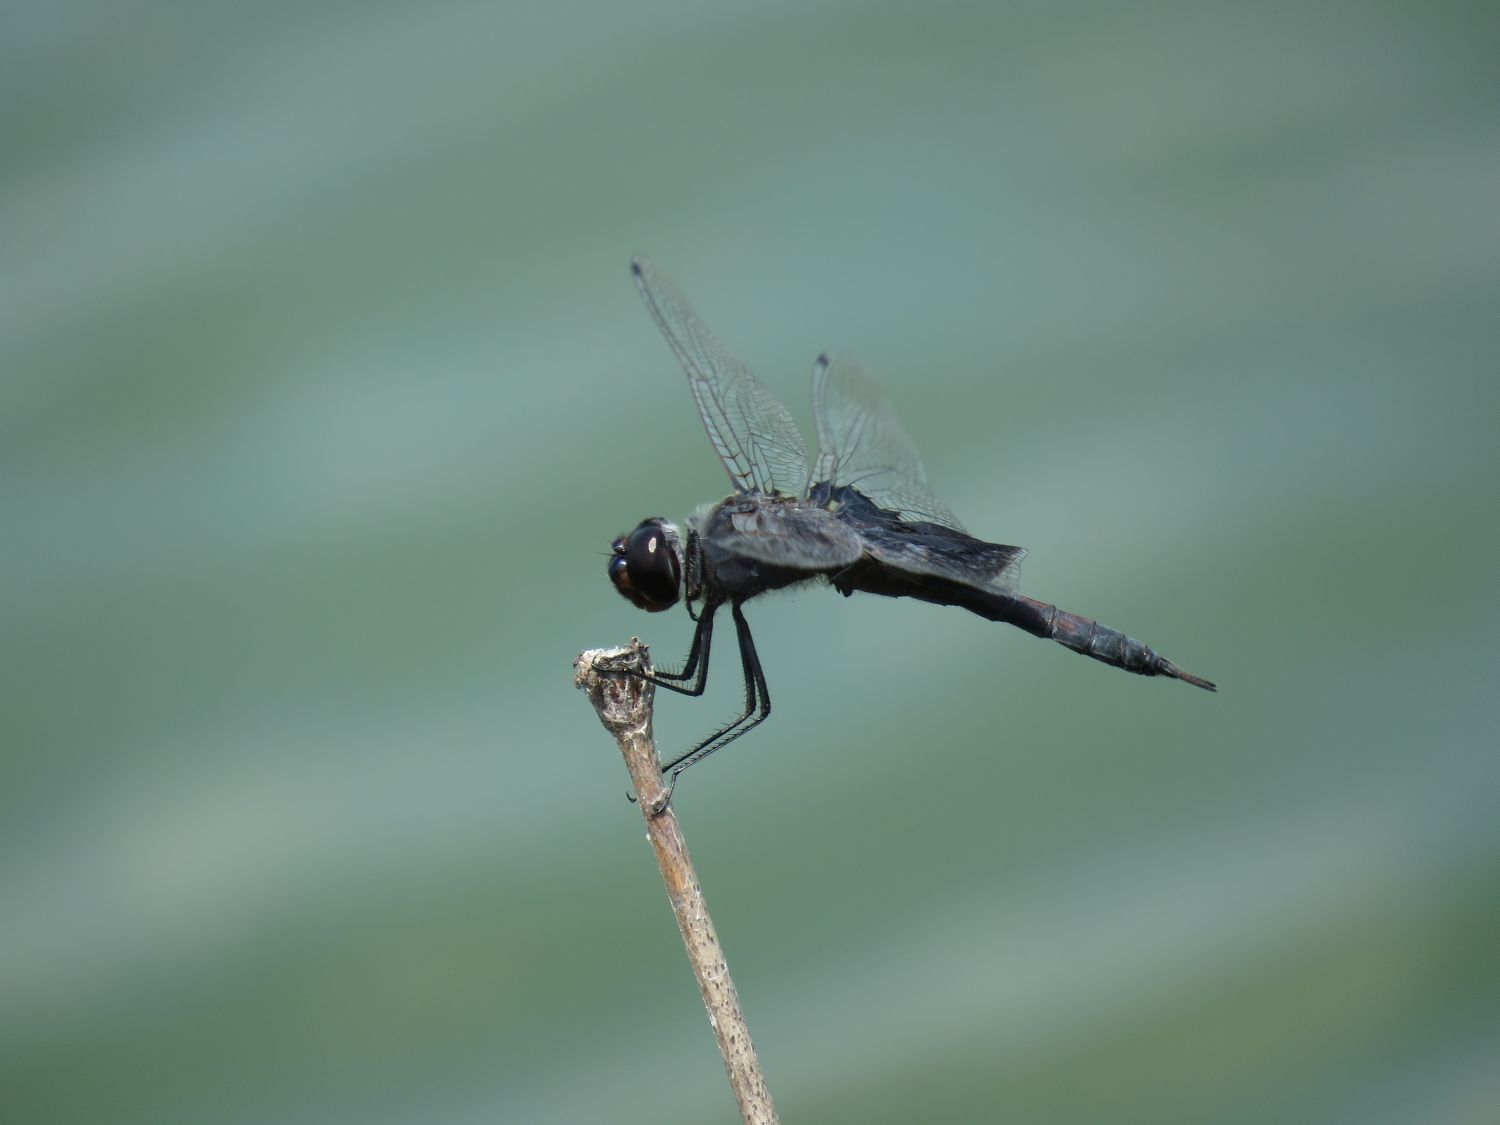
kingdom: Animalia
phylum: Arthropoda
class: Insecta
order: Odonata
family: Libellulidae
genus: Tramea
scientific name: Tramea lacerata
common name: Black saddlebags
